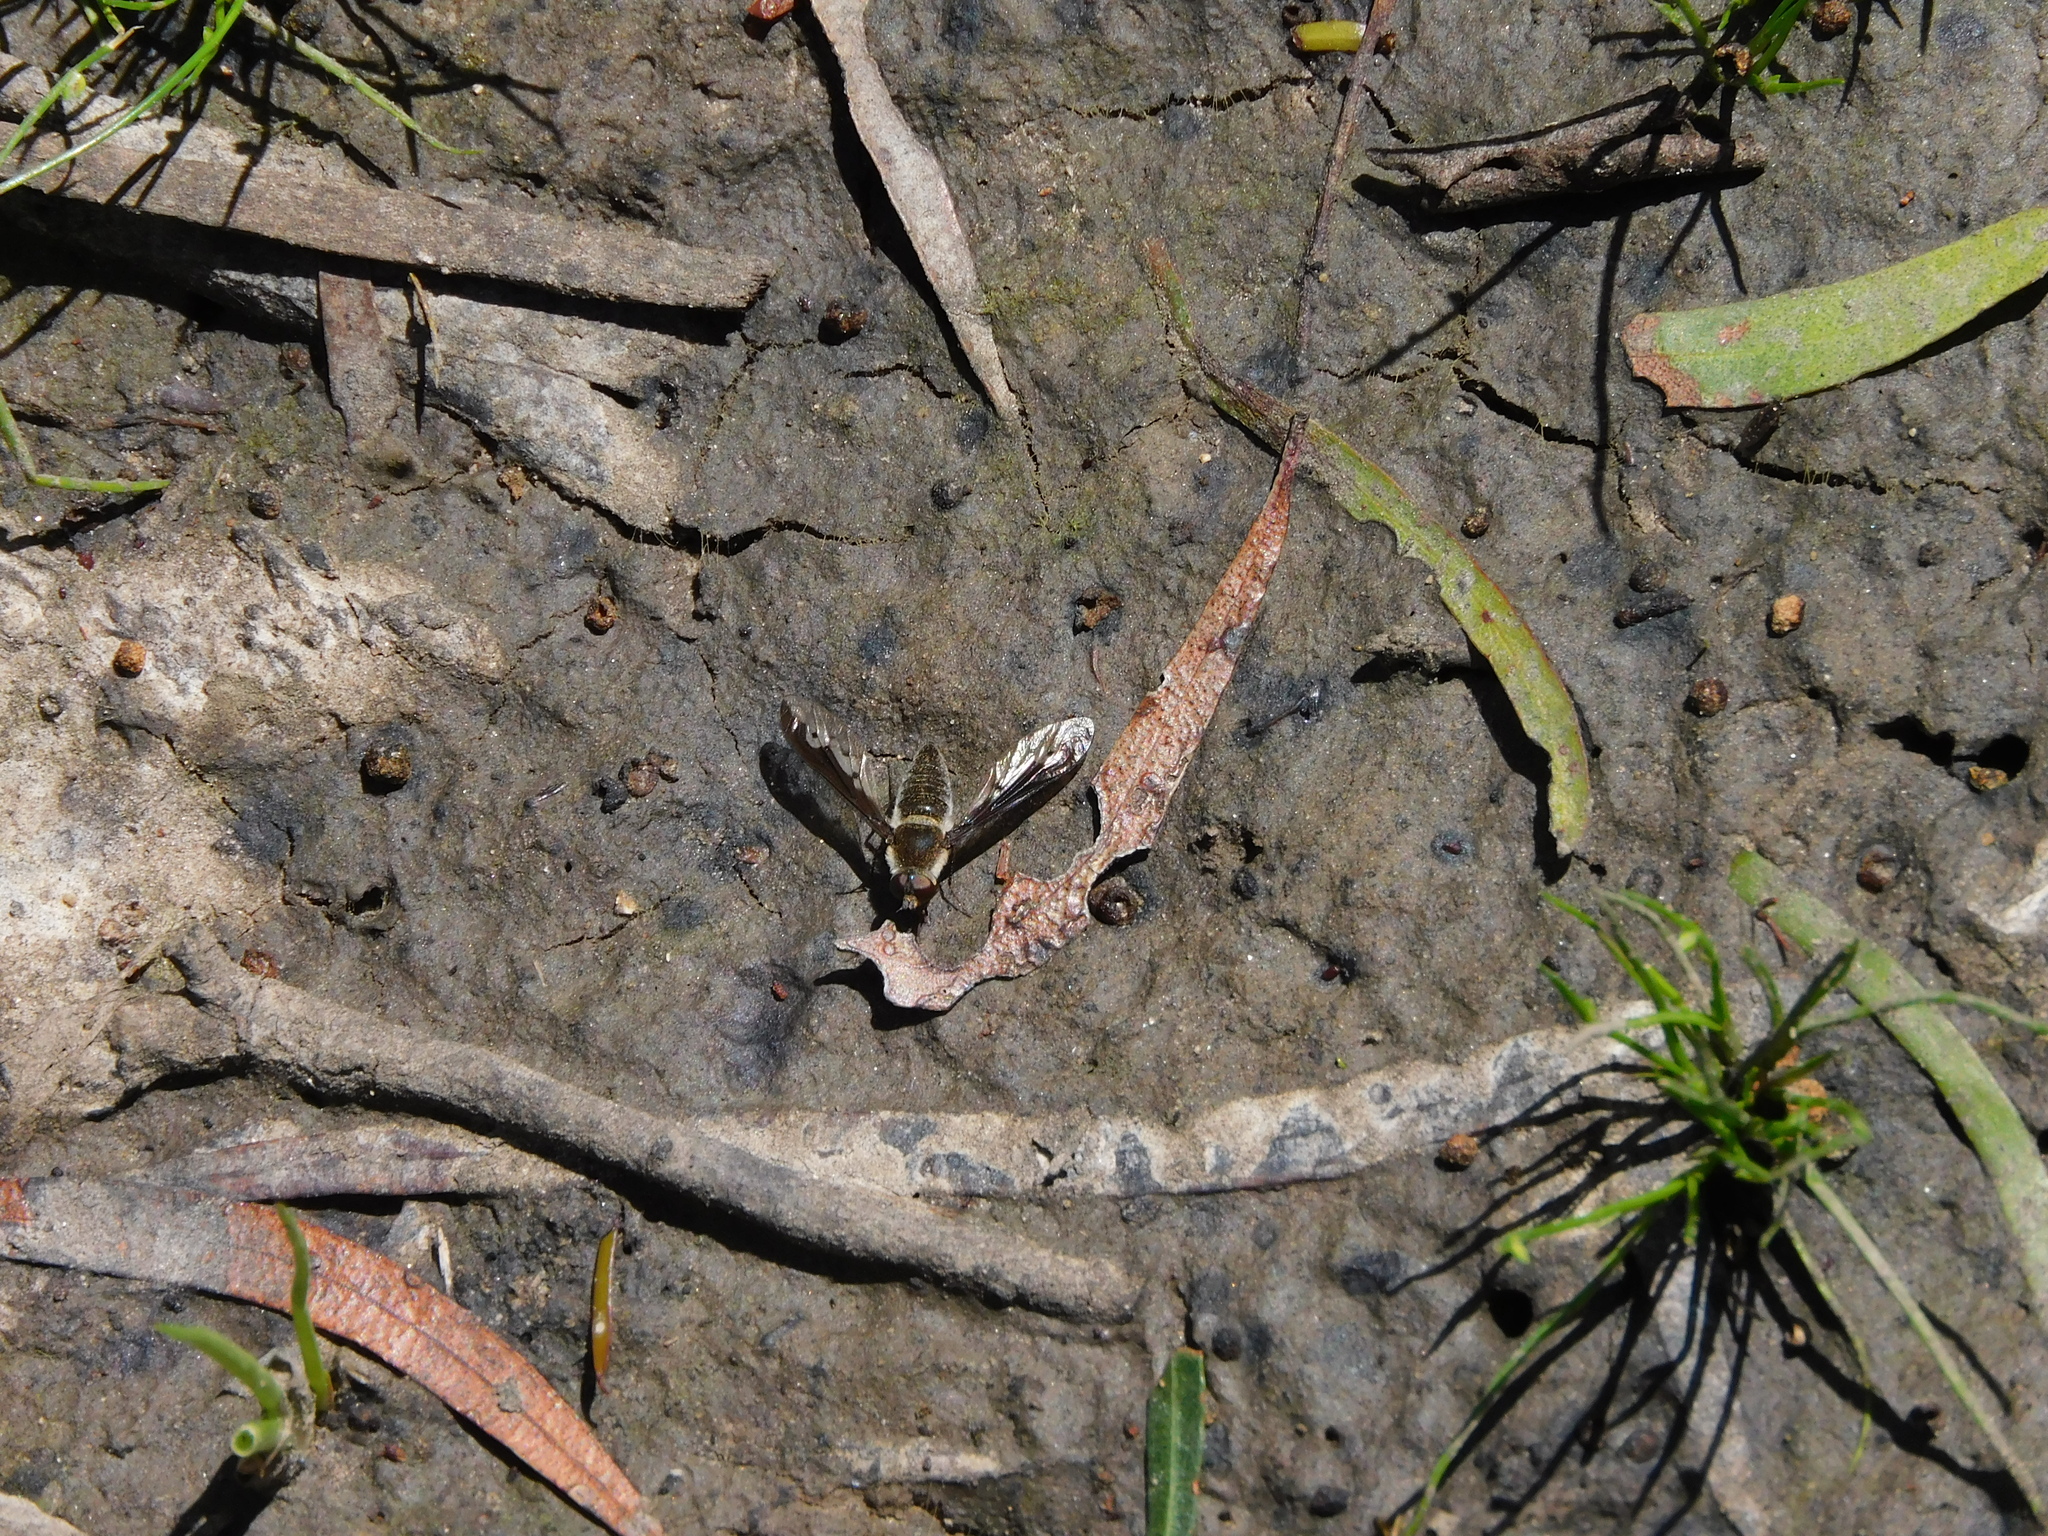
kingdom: Animalia
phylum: Arthropoda
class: Insecta
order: Diptera
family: Bombyliidae
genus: Aleucosia
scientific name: Aleucosia atherix
